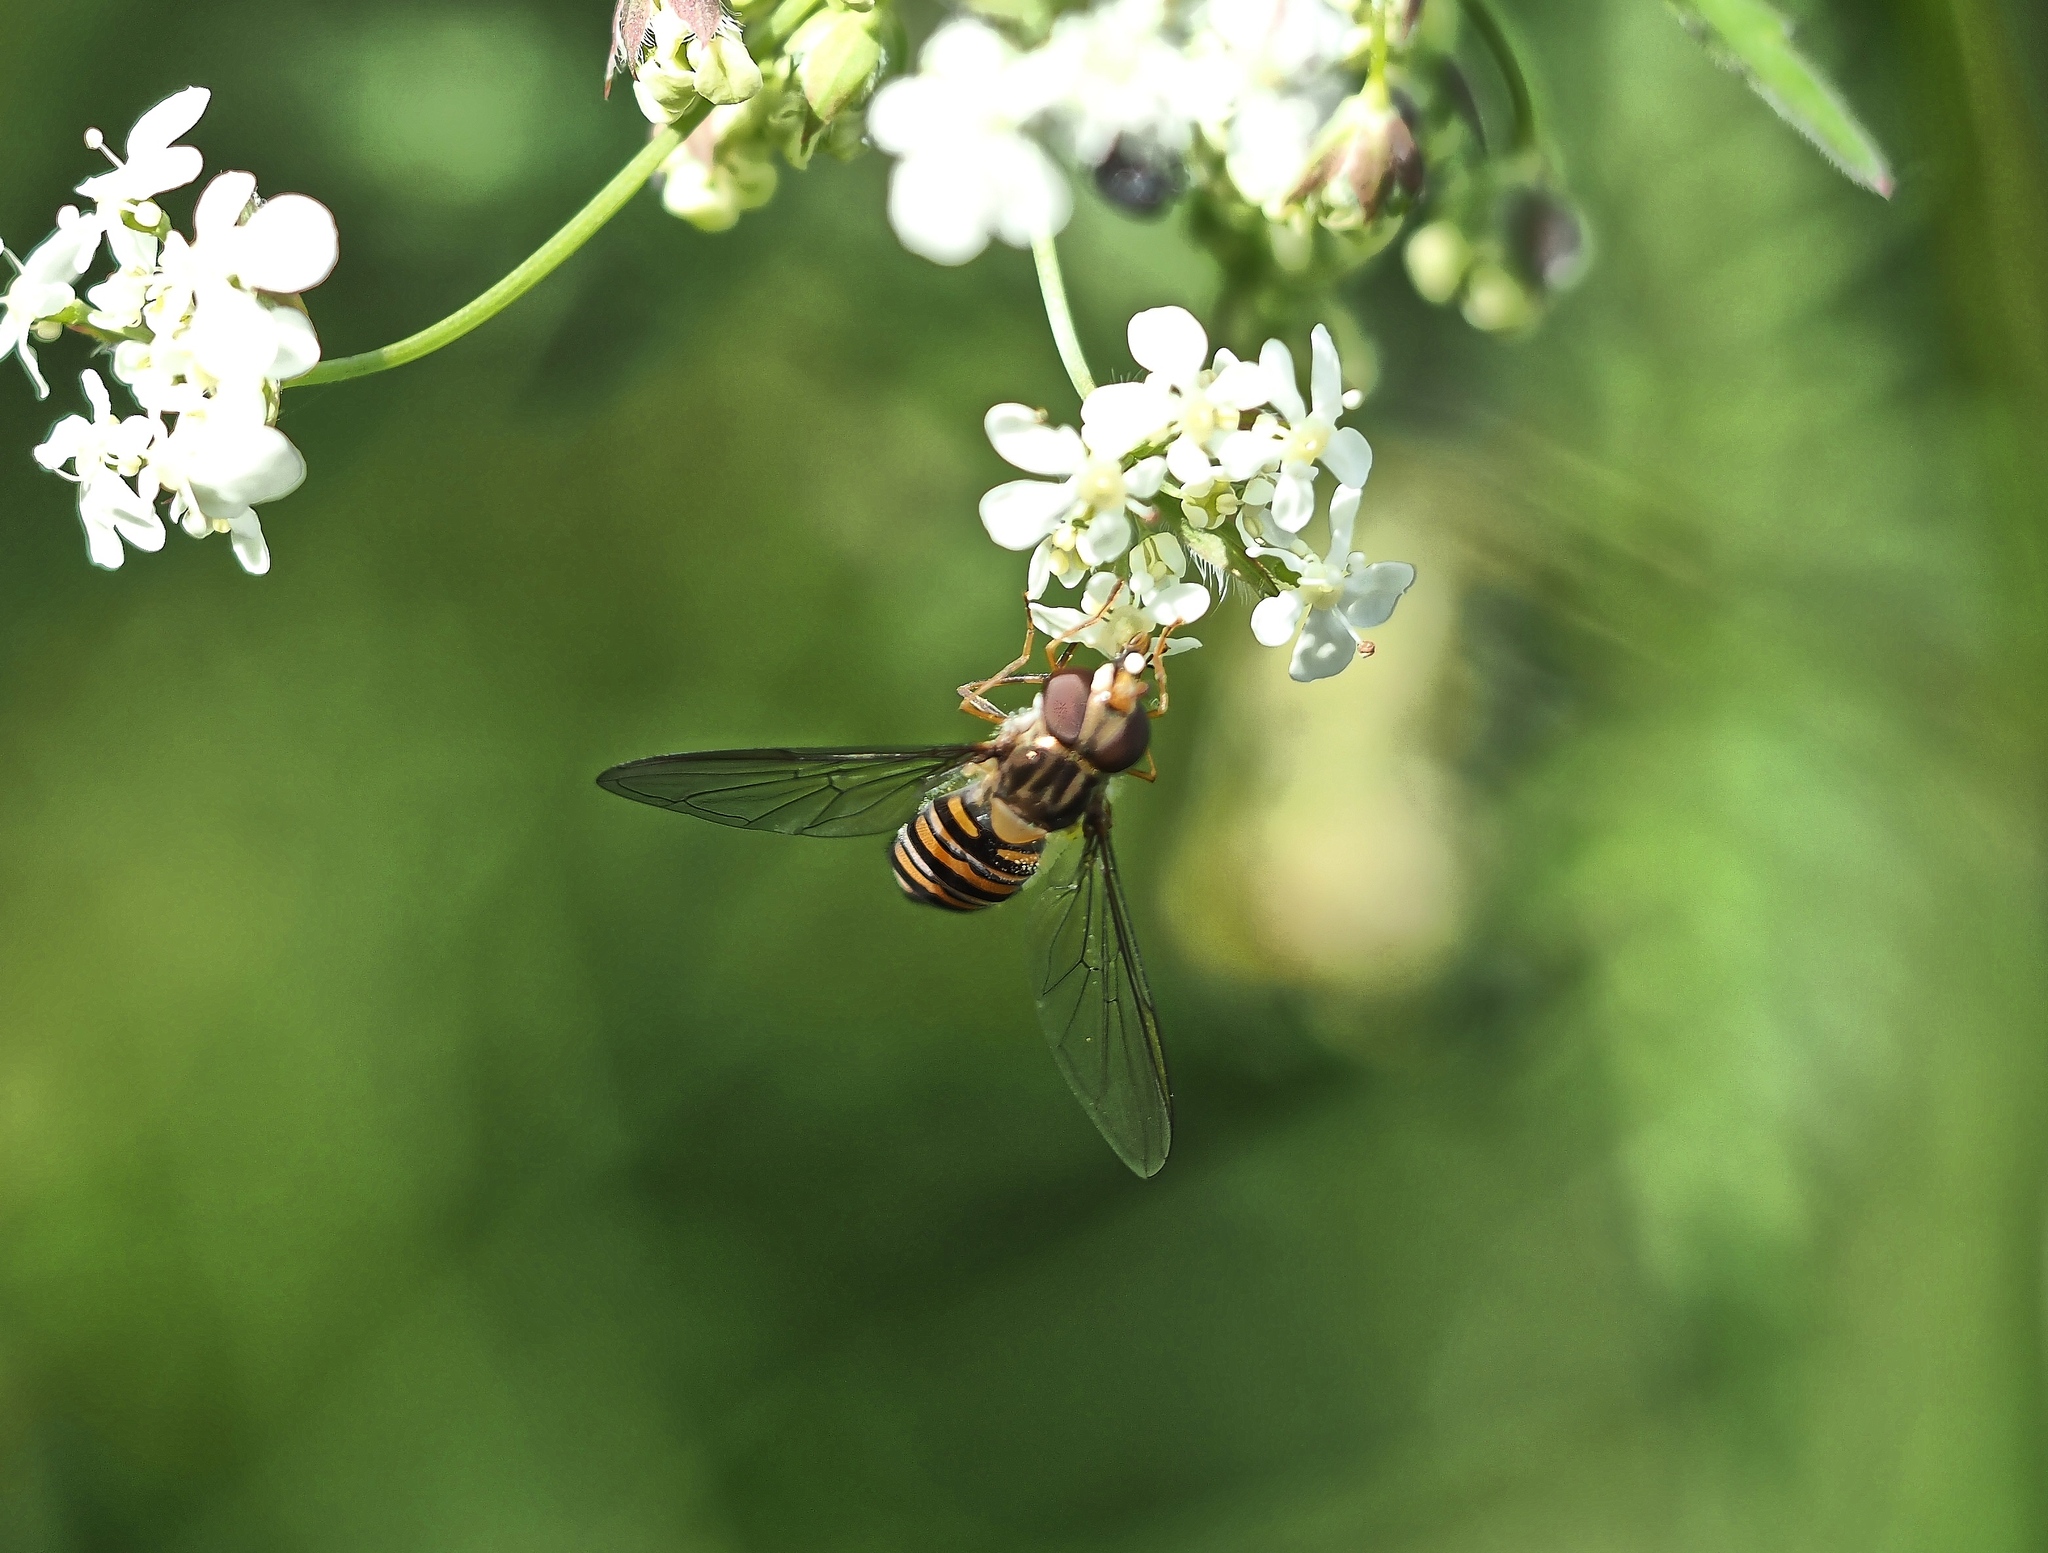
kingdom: Animalia
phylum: Arthropoda
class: Insecta
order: Diptera
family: Syrphidae
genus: Episyrphus
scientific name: Episyrphus balteatus
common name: Marmalade hoverfly
